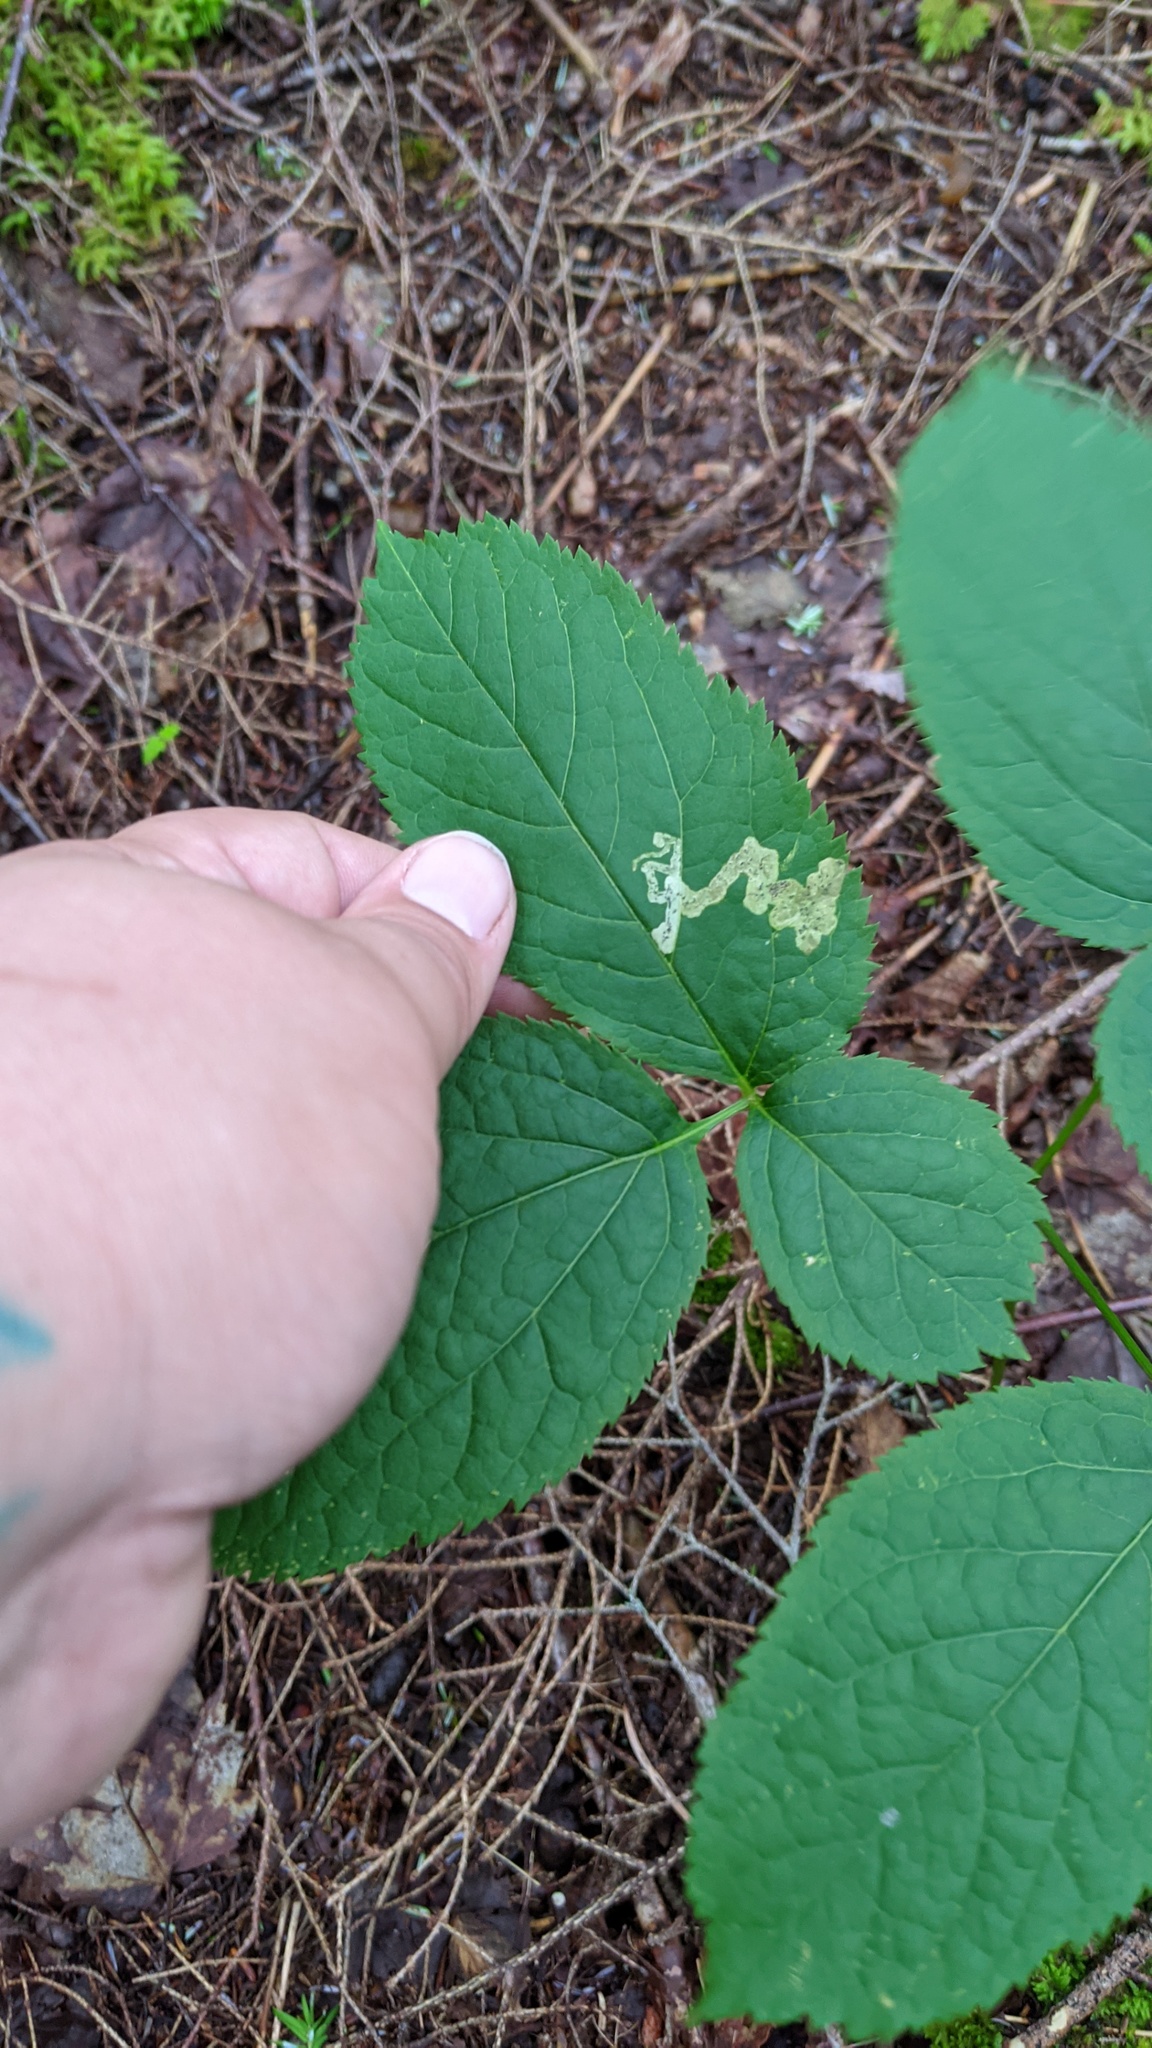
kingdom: Animalia
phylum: Arthropoda
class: Insecta
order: Diptera
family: Agromyzidae
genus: Phytomyza
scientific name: Phytomyza aralivora
